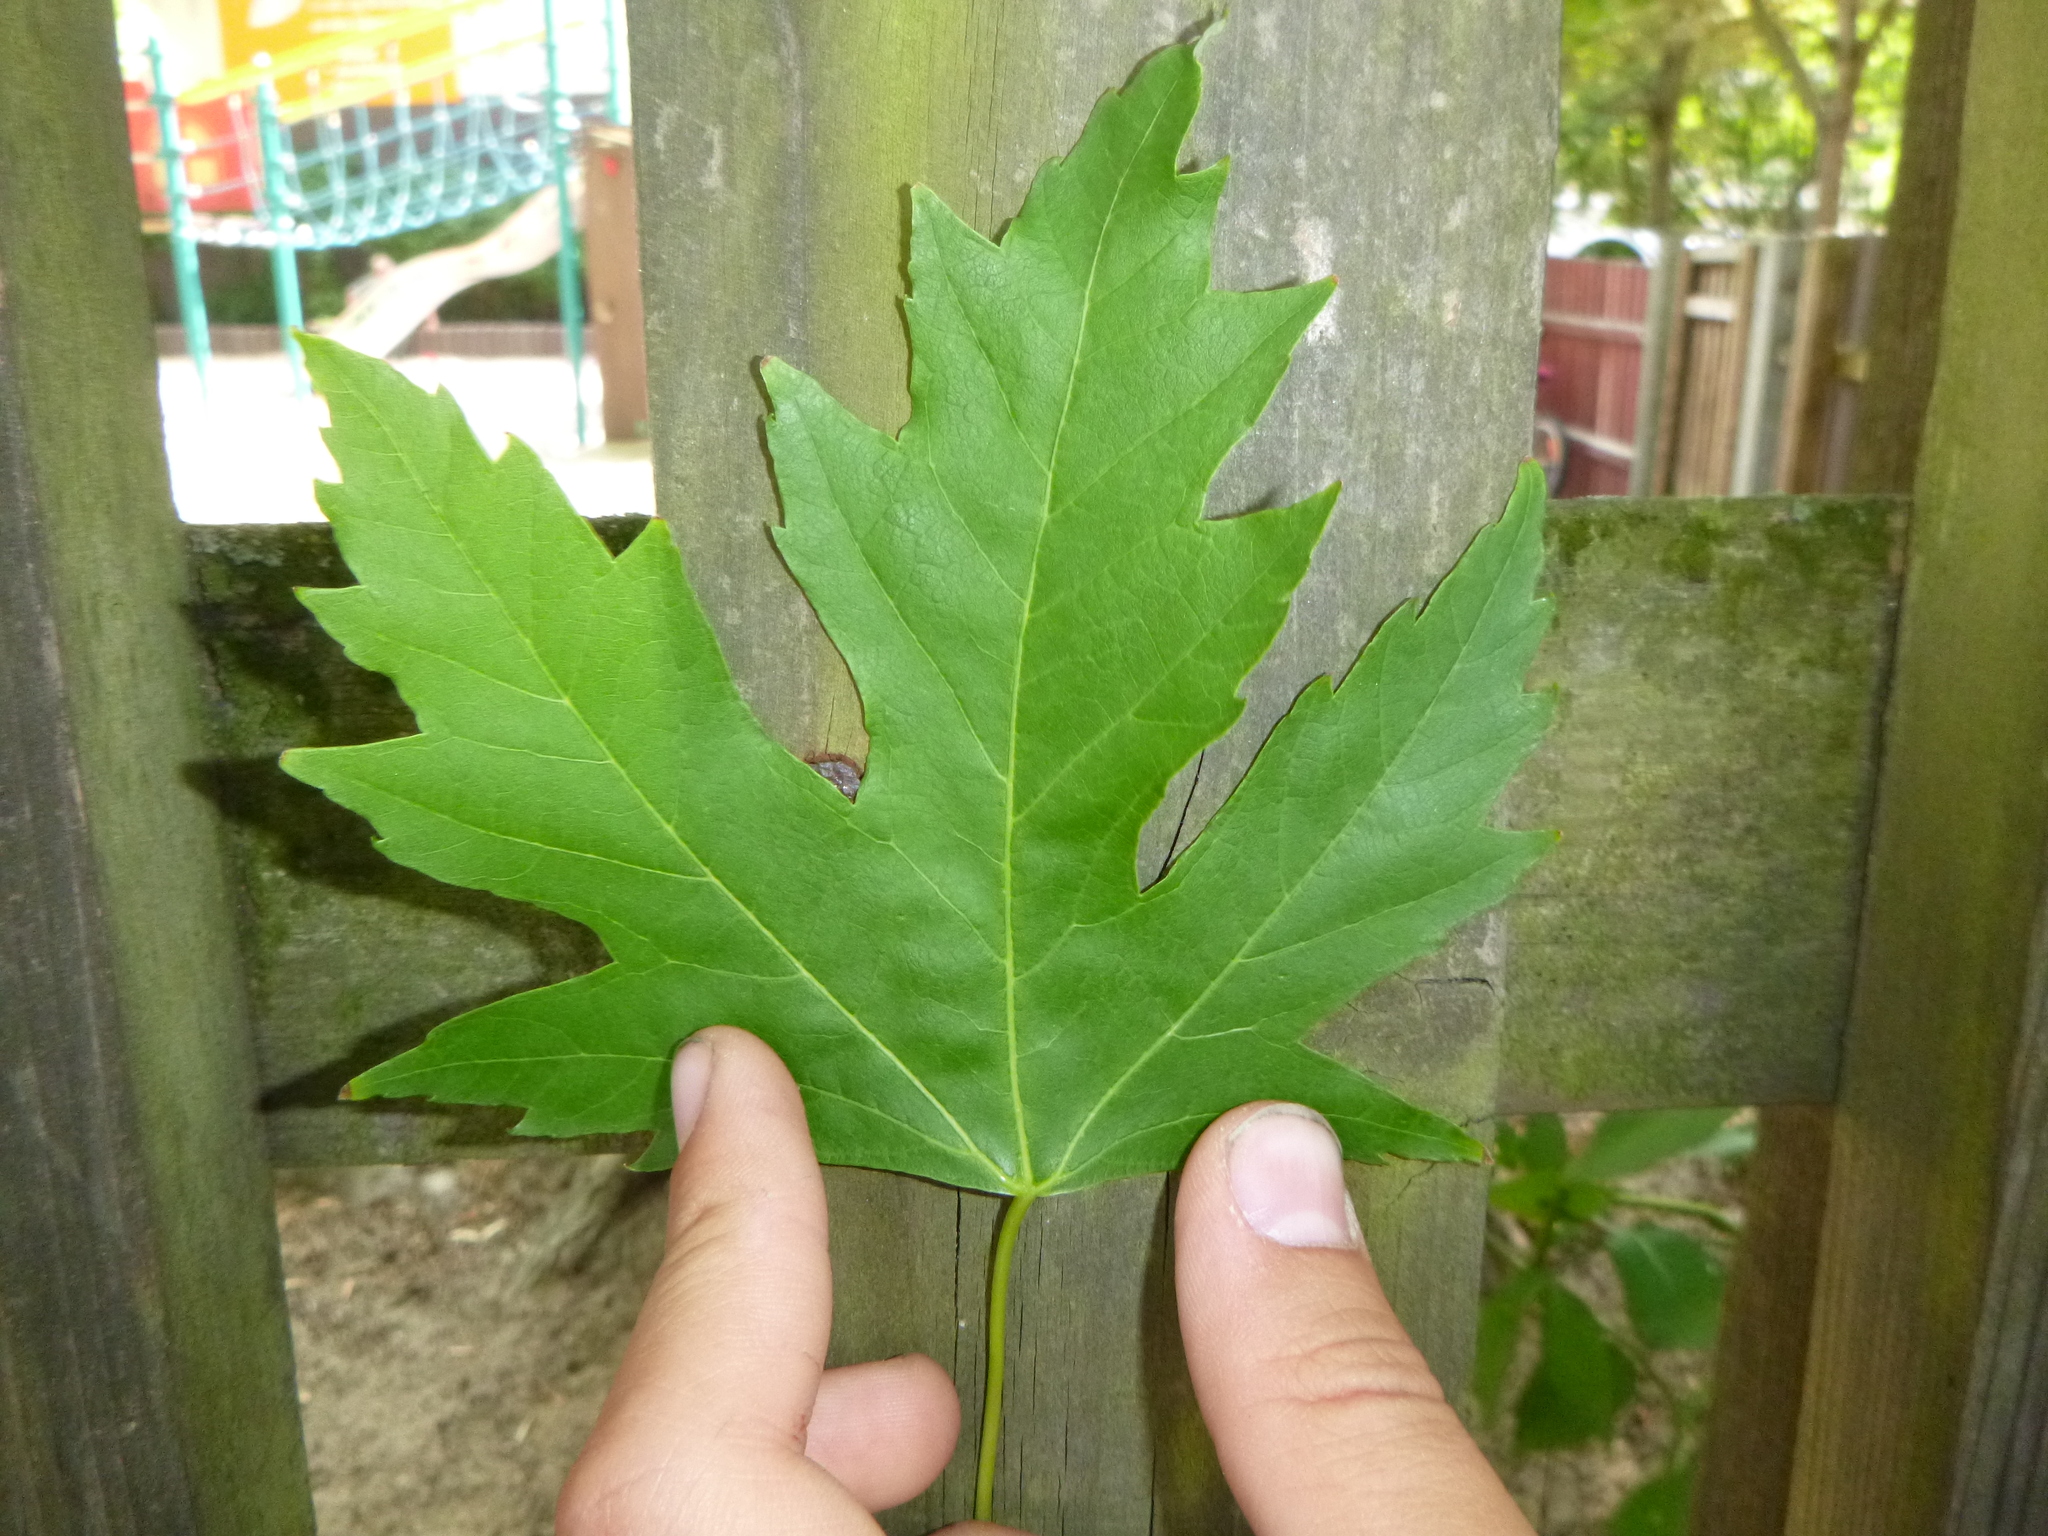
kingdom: Plantae
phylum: Tracheophyta
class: Magnoliopsida
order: Sapindales
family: Sapindaceae
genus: Acer
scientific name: Acer saccharinum
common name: Silver maple
